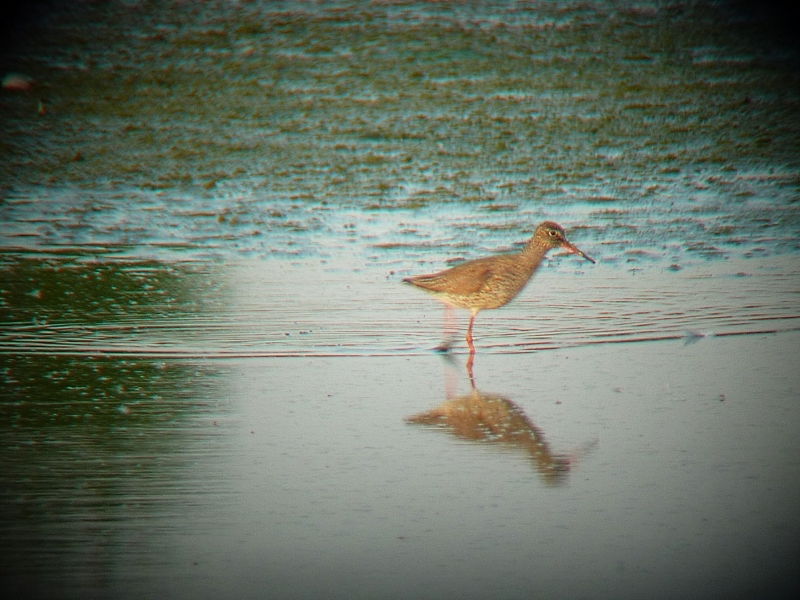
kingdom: Animalia
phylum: Chordata
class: Aves
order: Charadriiformes
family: Scolopacidae
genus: Tringa
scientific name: Tringa totanus
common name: Common redshank
